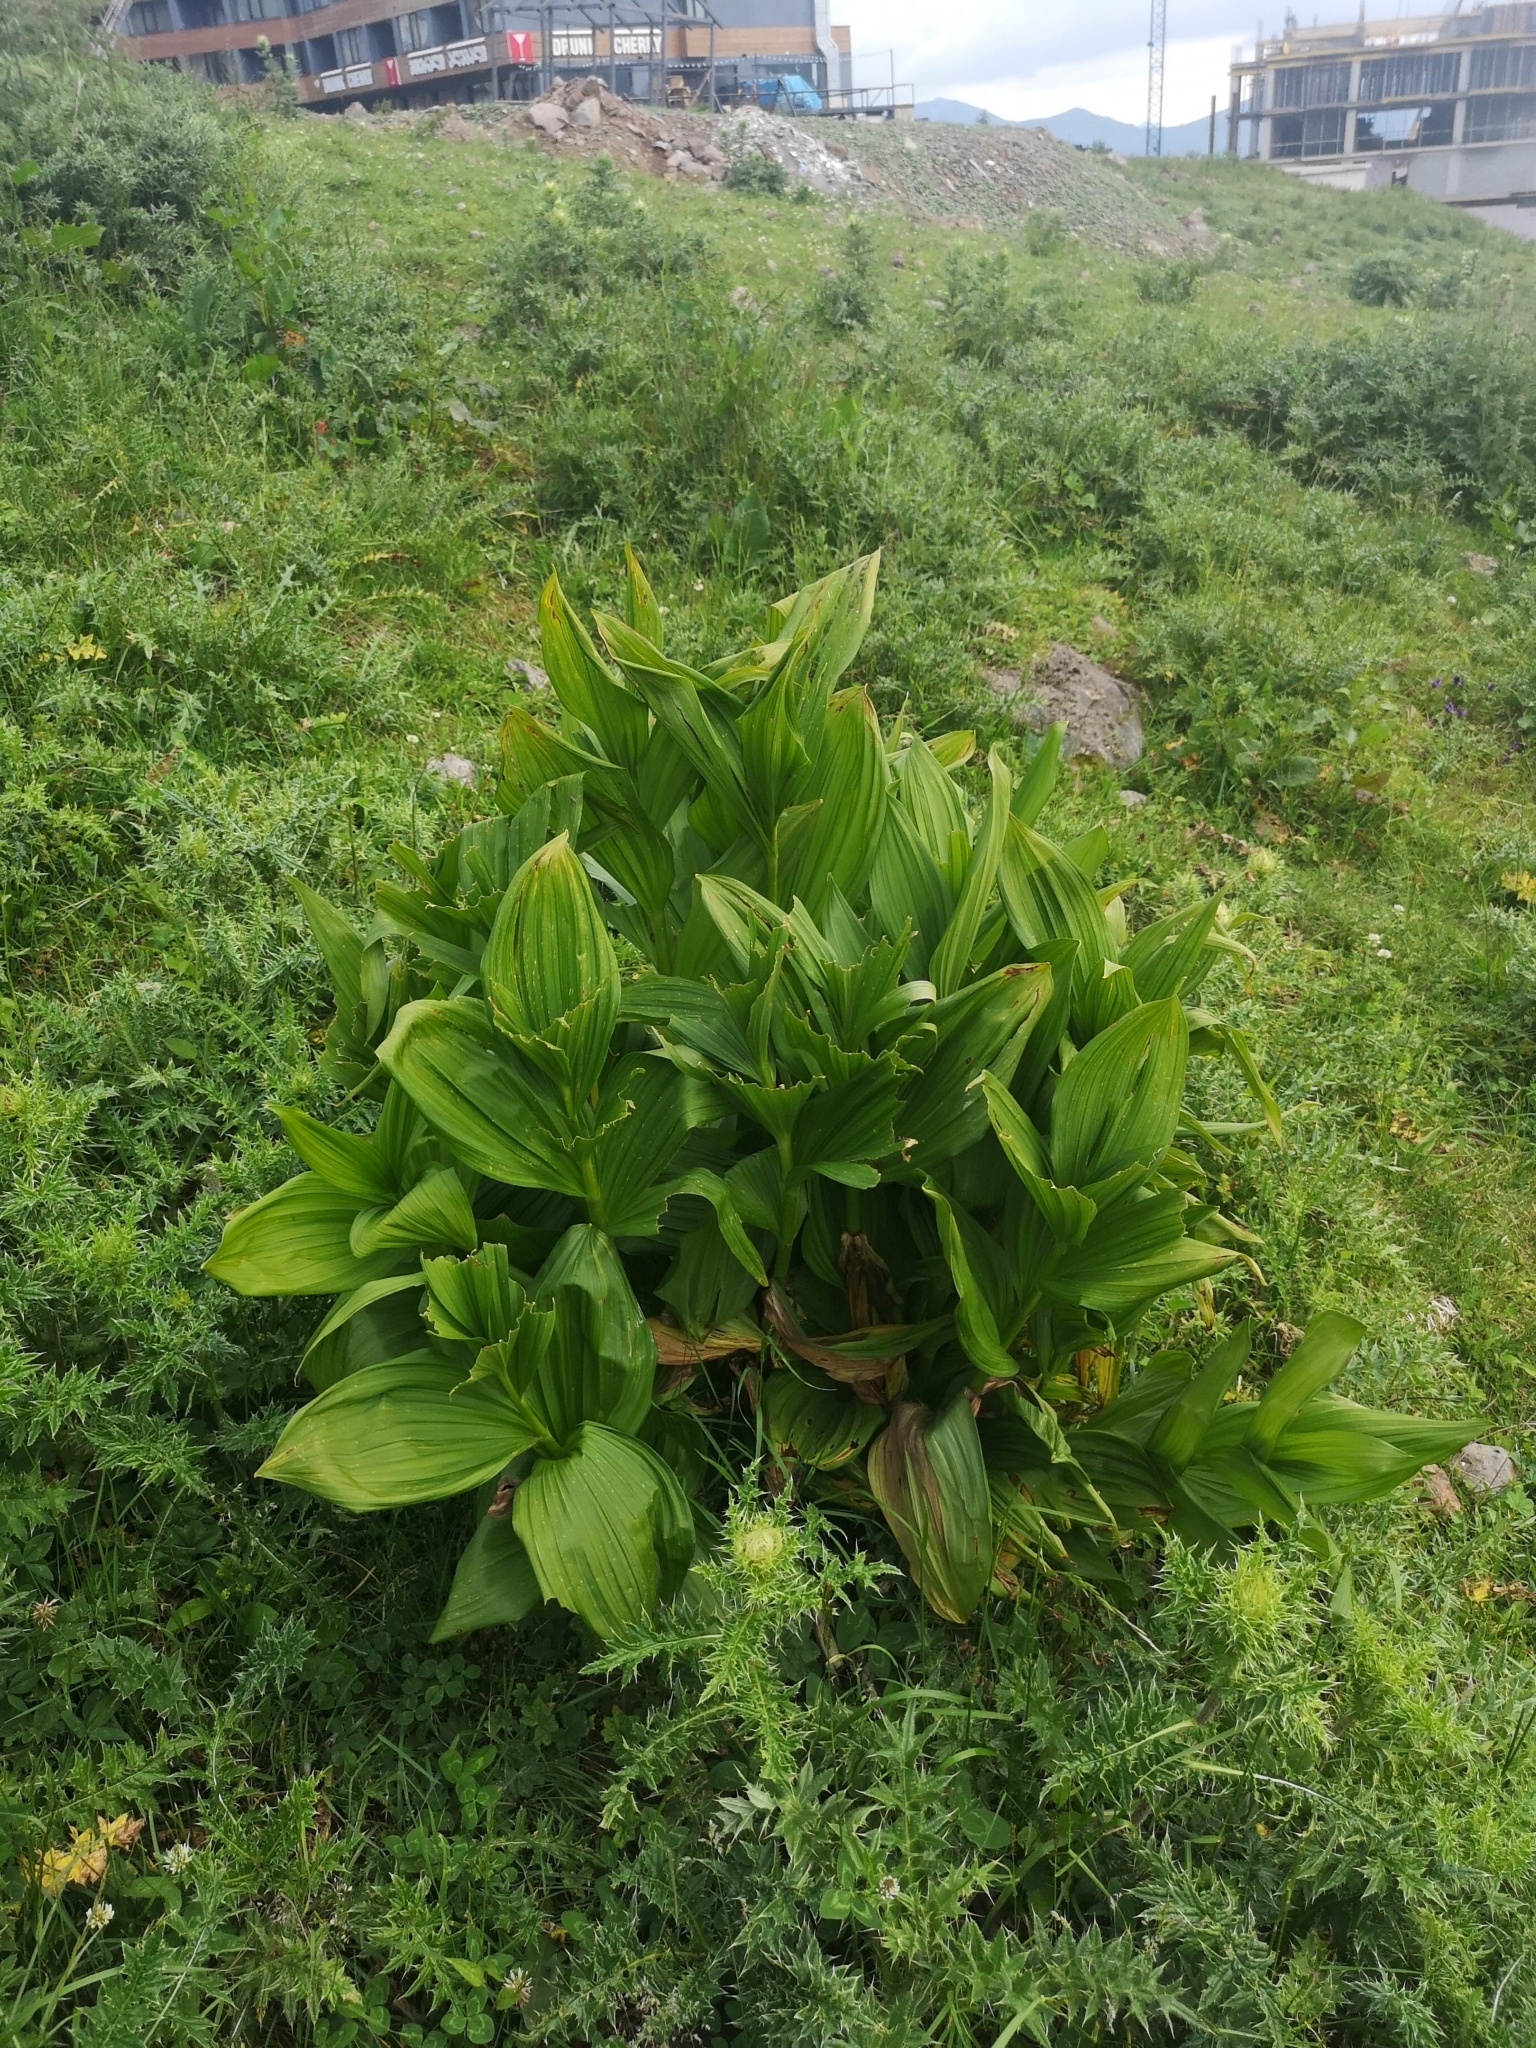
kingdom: Plantae
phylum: Tracheophyta
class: Liliopsida
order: Liliales
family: Melanthiaceae
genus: Veratrum
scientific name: Veratrum lobelianum
